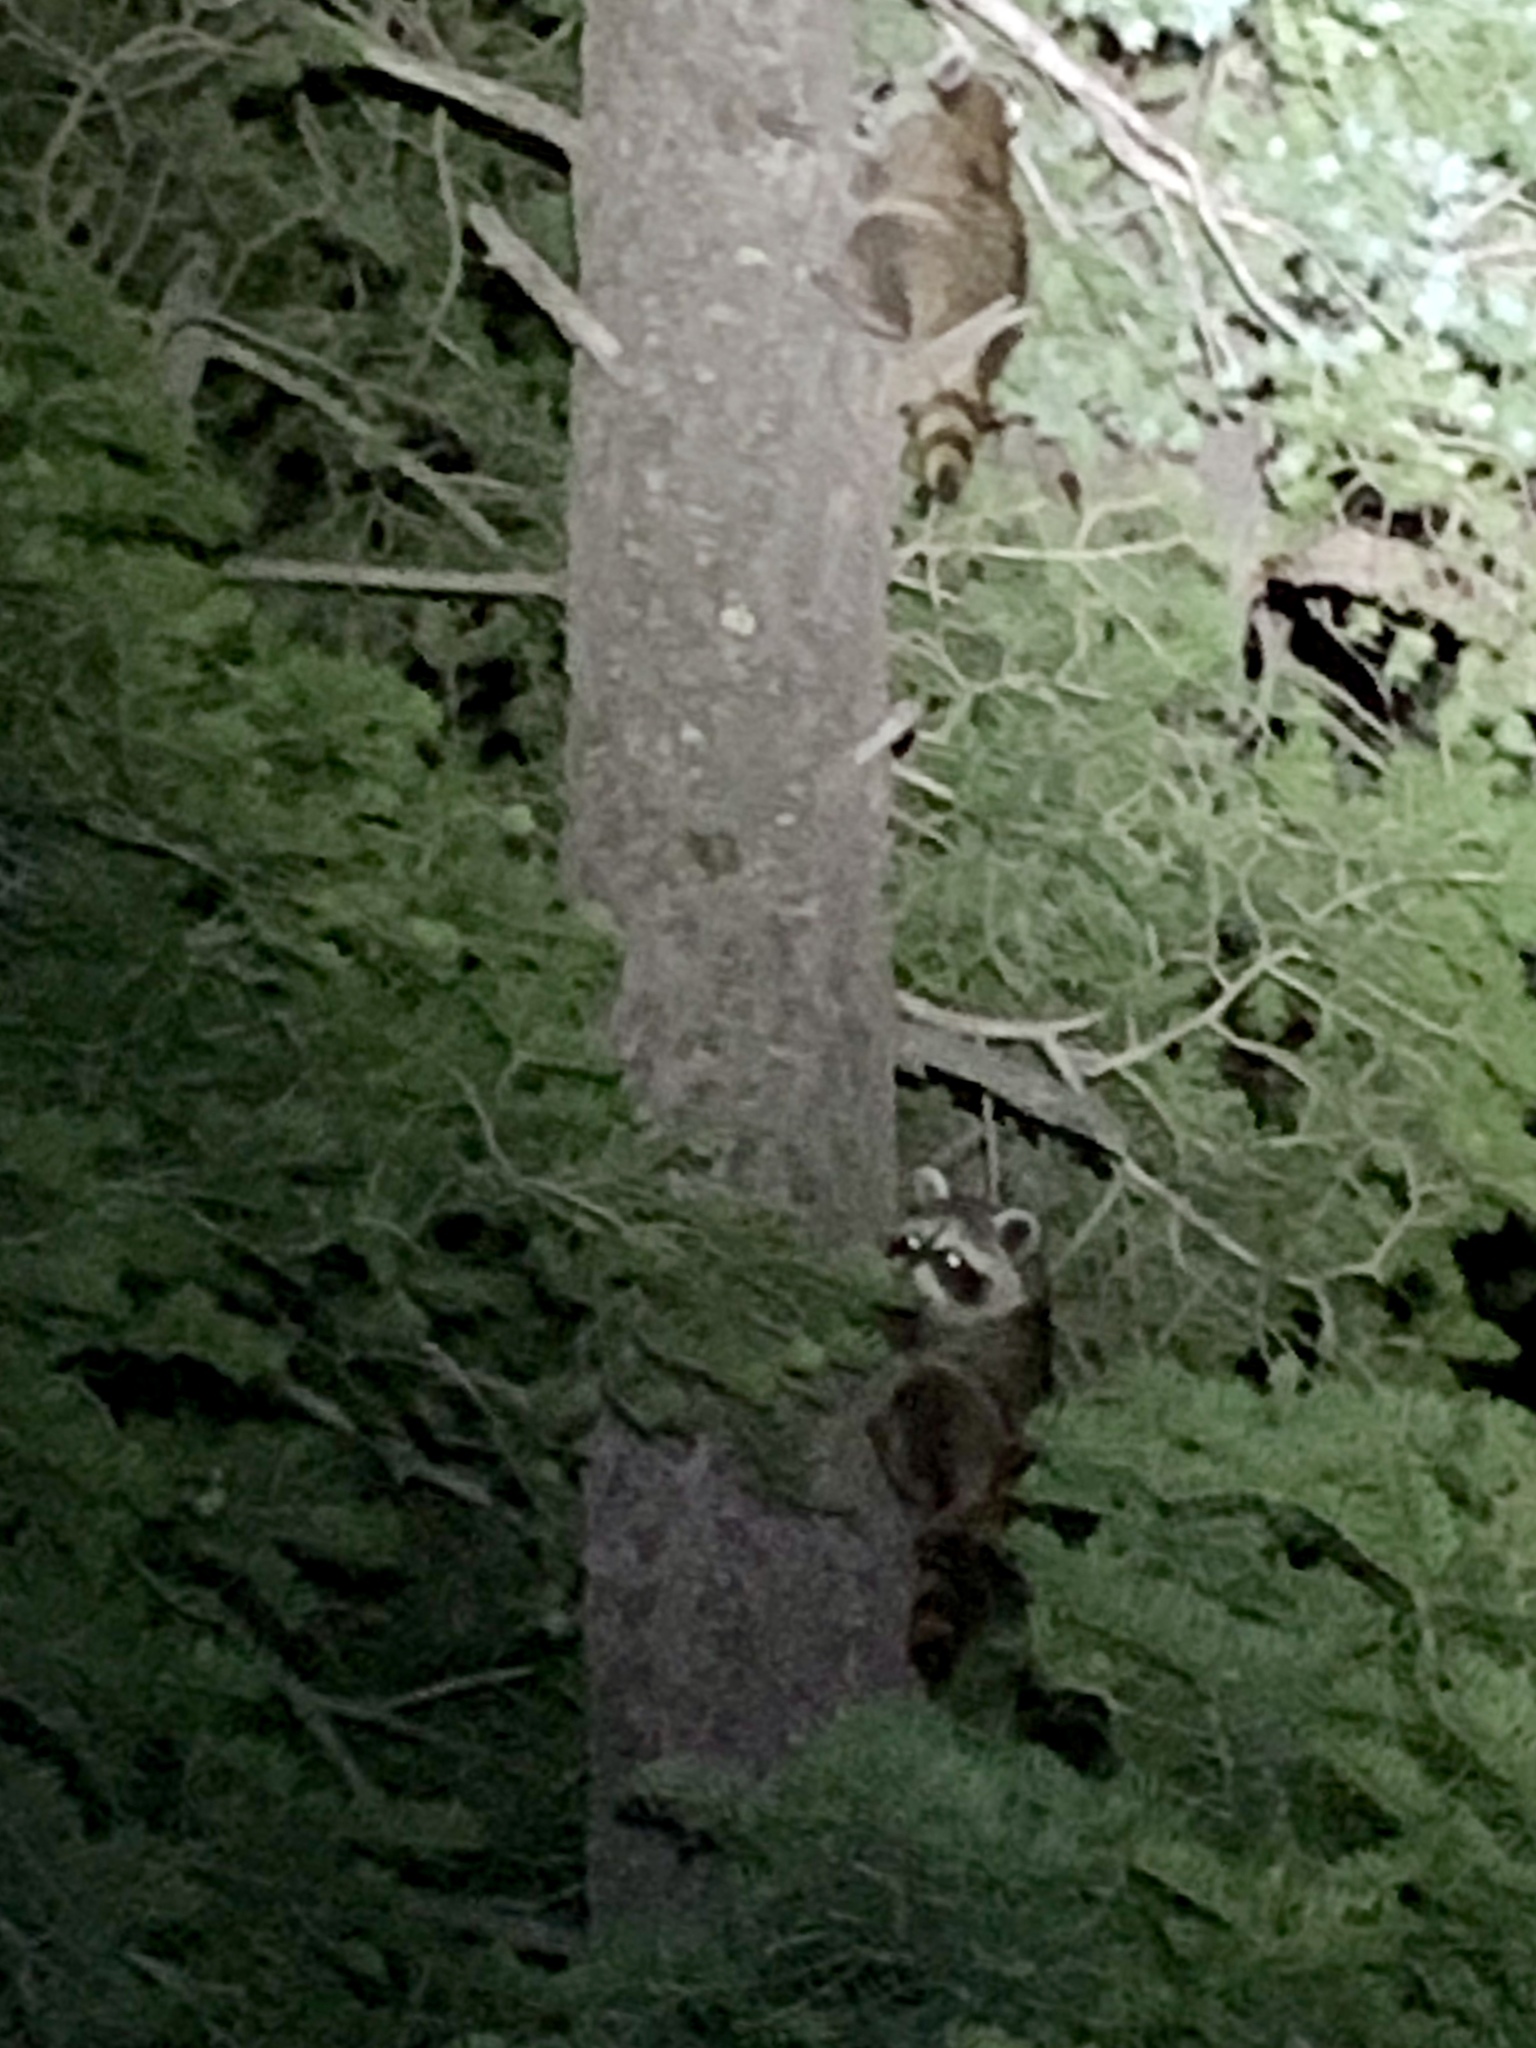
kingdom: Animalia
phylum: Chordata
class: Mammalia
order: Carnivora
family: Procyonidae
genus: Procyon
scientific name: Procyon lotor
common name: Raccoon
